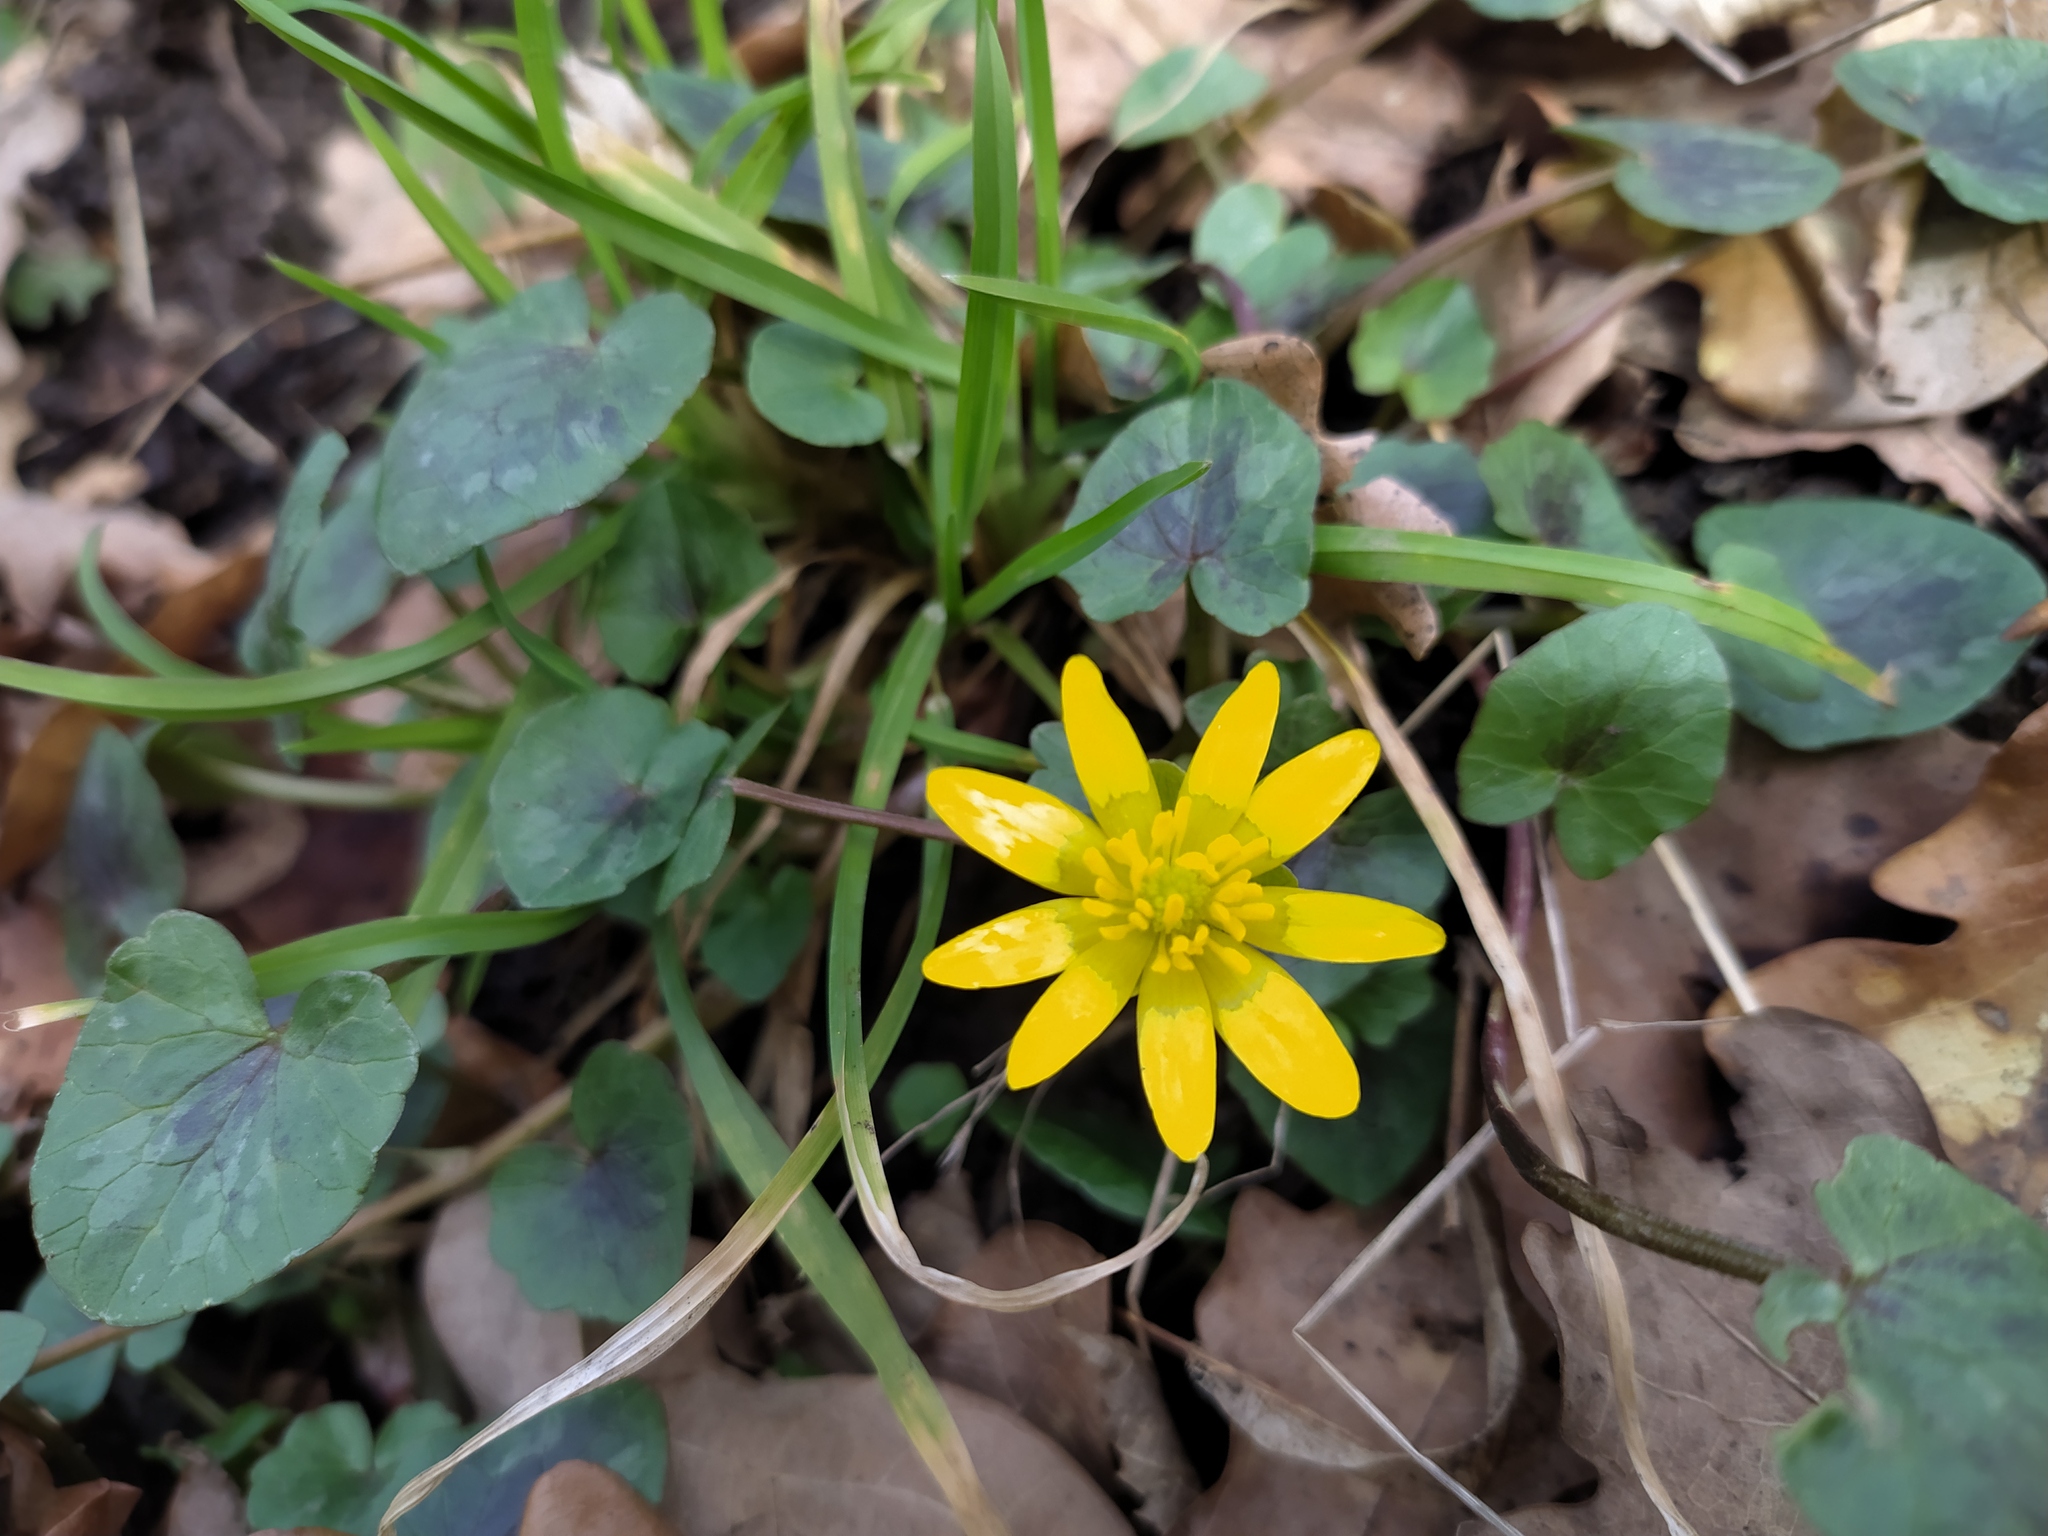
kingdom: Plantae
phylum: Tracheophyta
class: Magnoliopsida
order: Ranunculales
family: Ranunculaceae
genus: Ficaria
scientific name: Ficaria verna
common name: Lesser celandine
